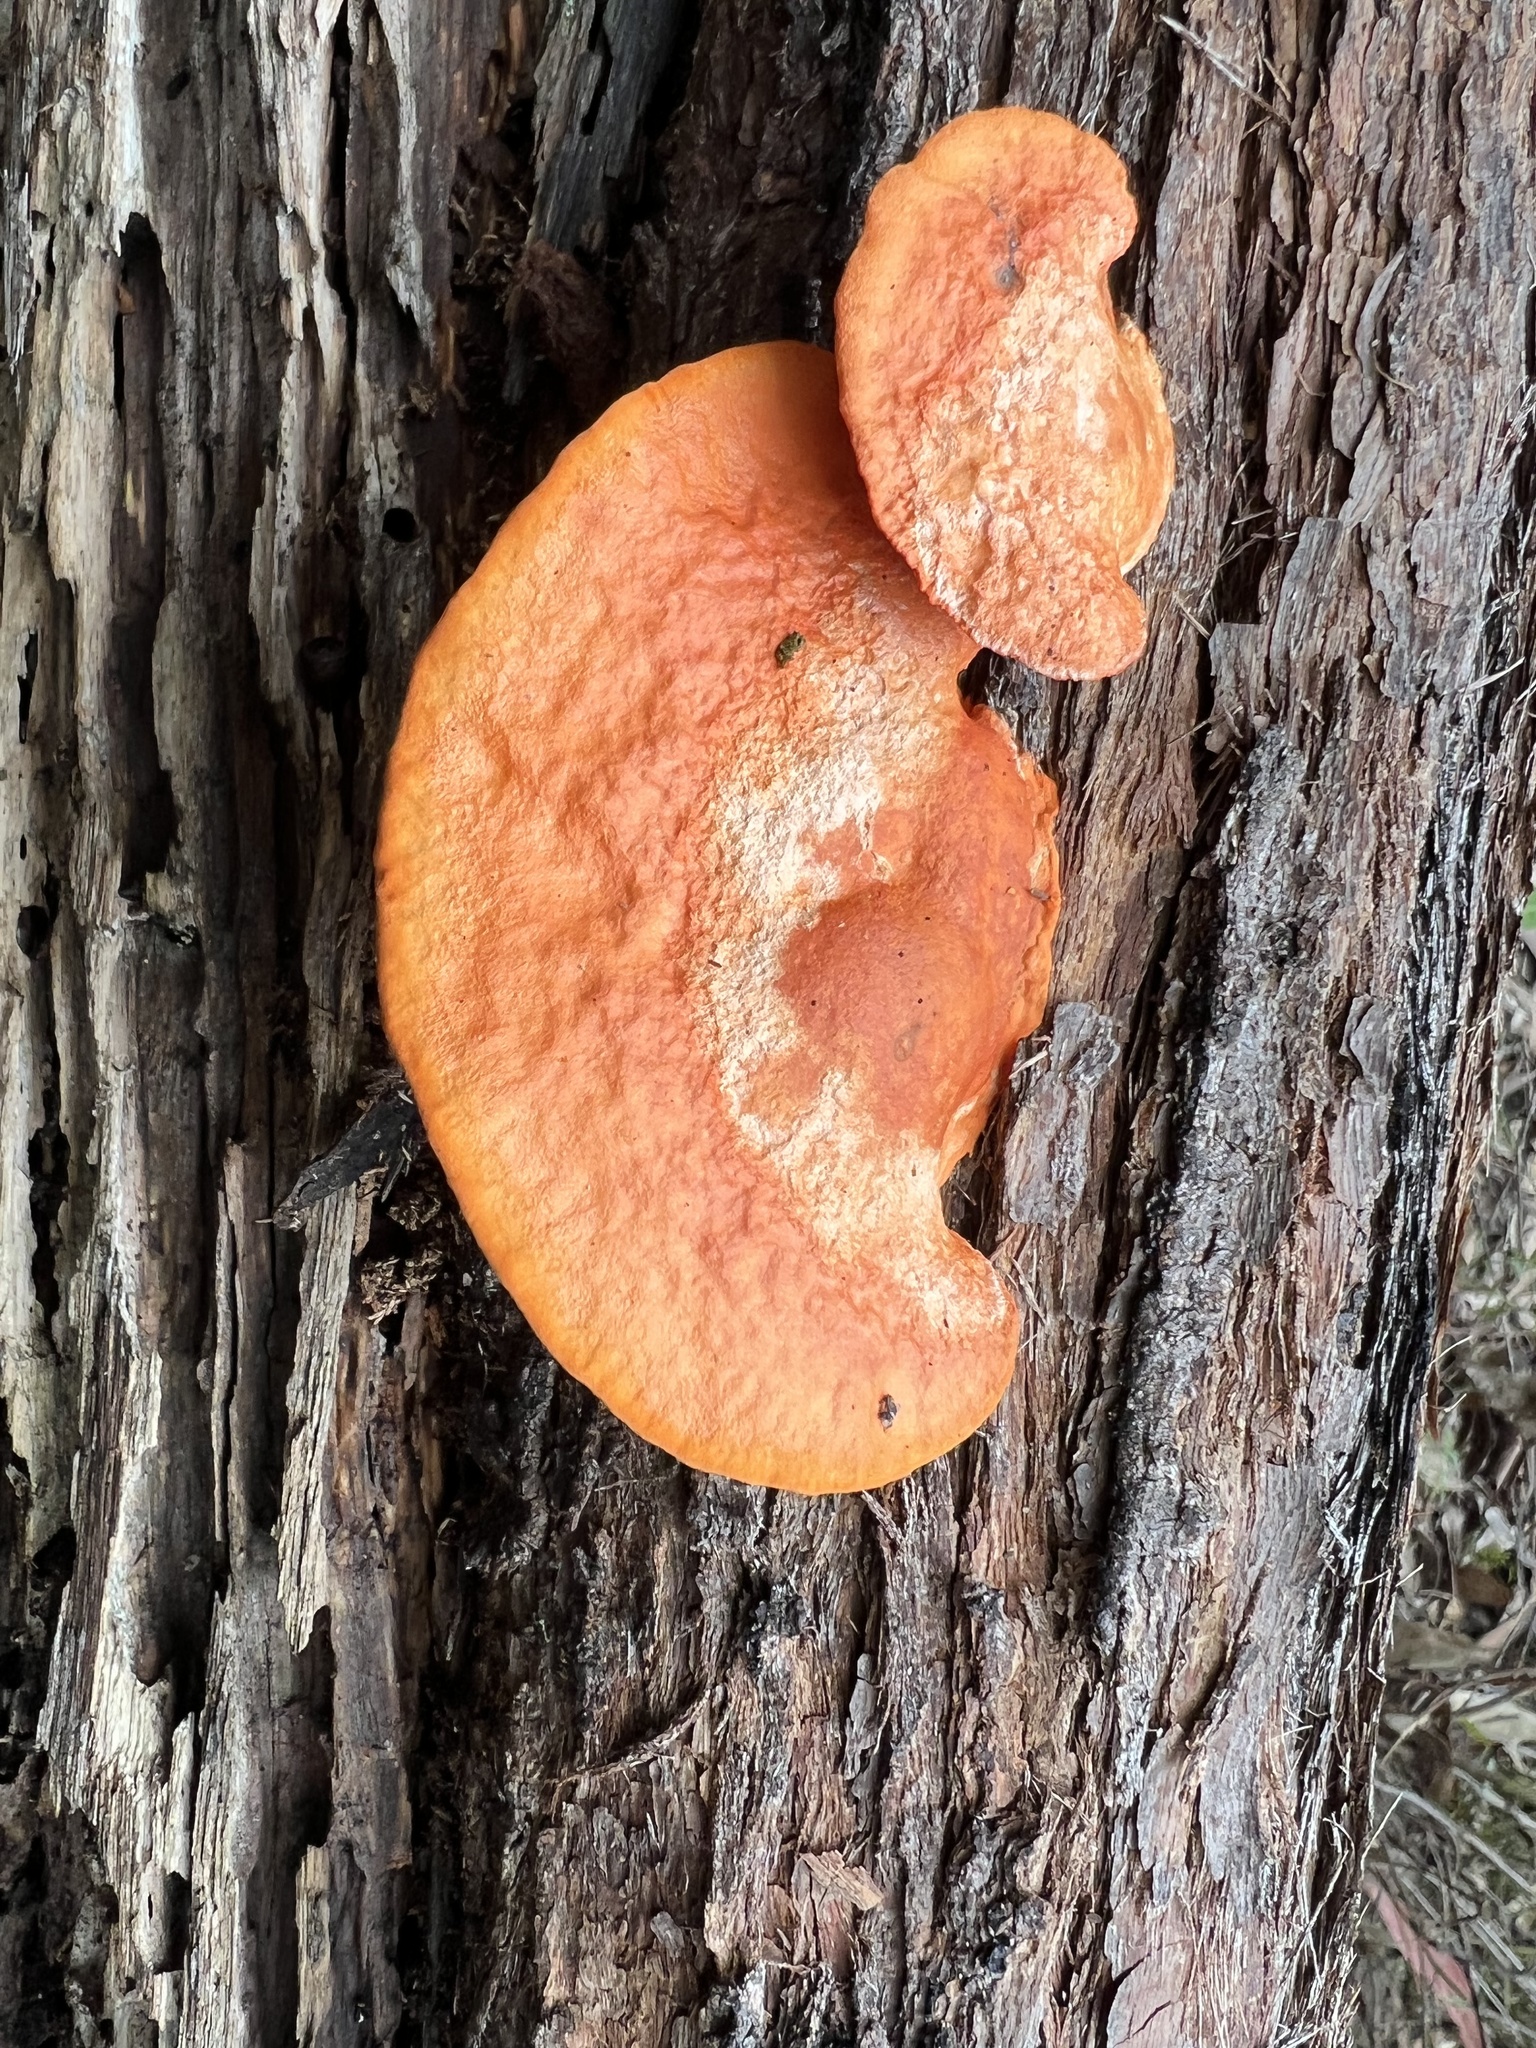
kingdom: Fungi
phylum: Basidiomycota
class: Agaricomycetes
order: Polyporales
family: Polyporaceae
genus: Trametes
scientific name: Trametes coccinea
